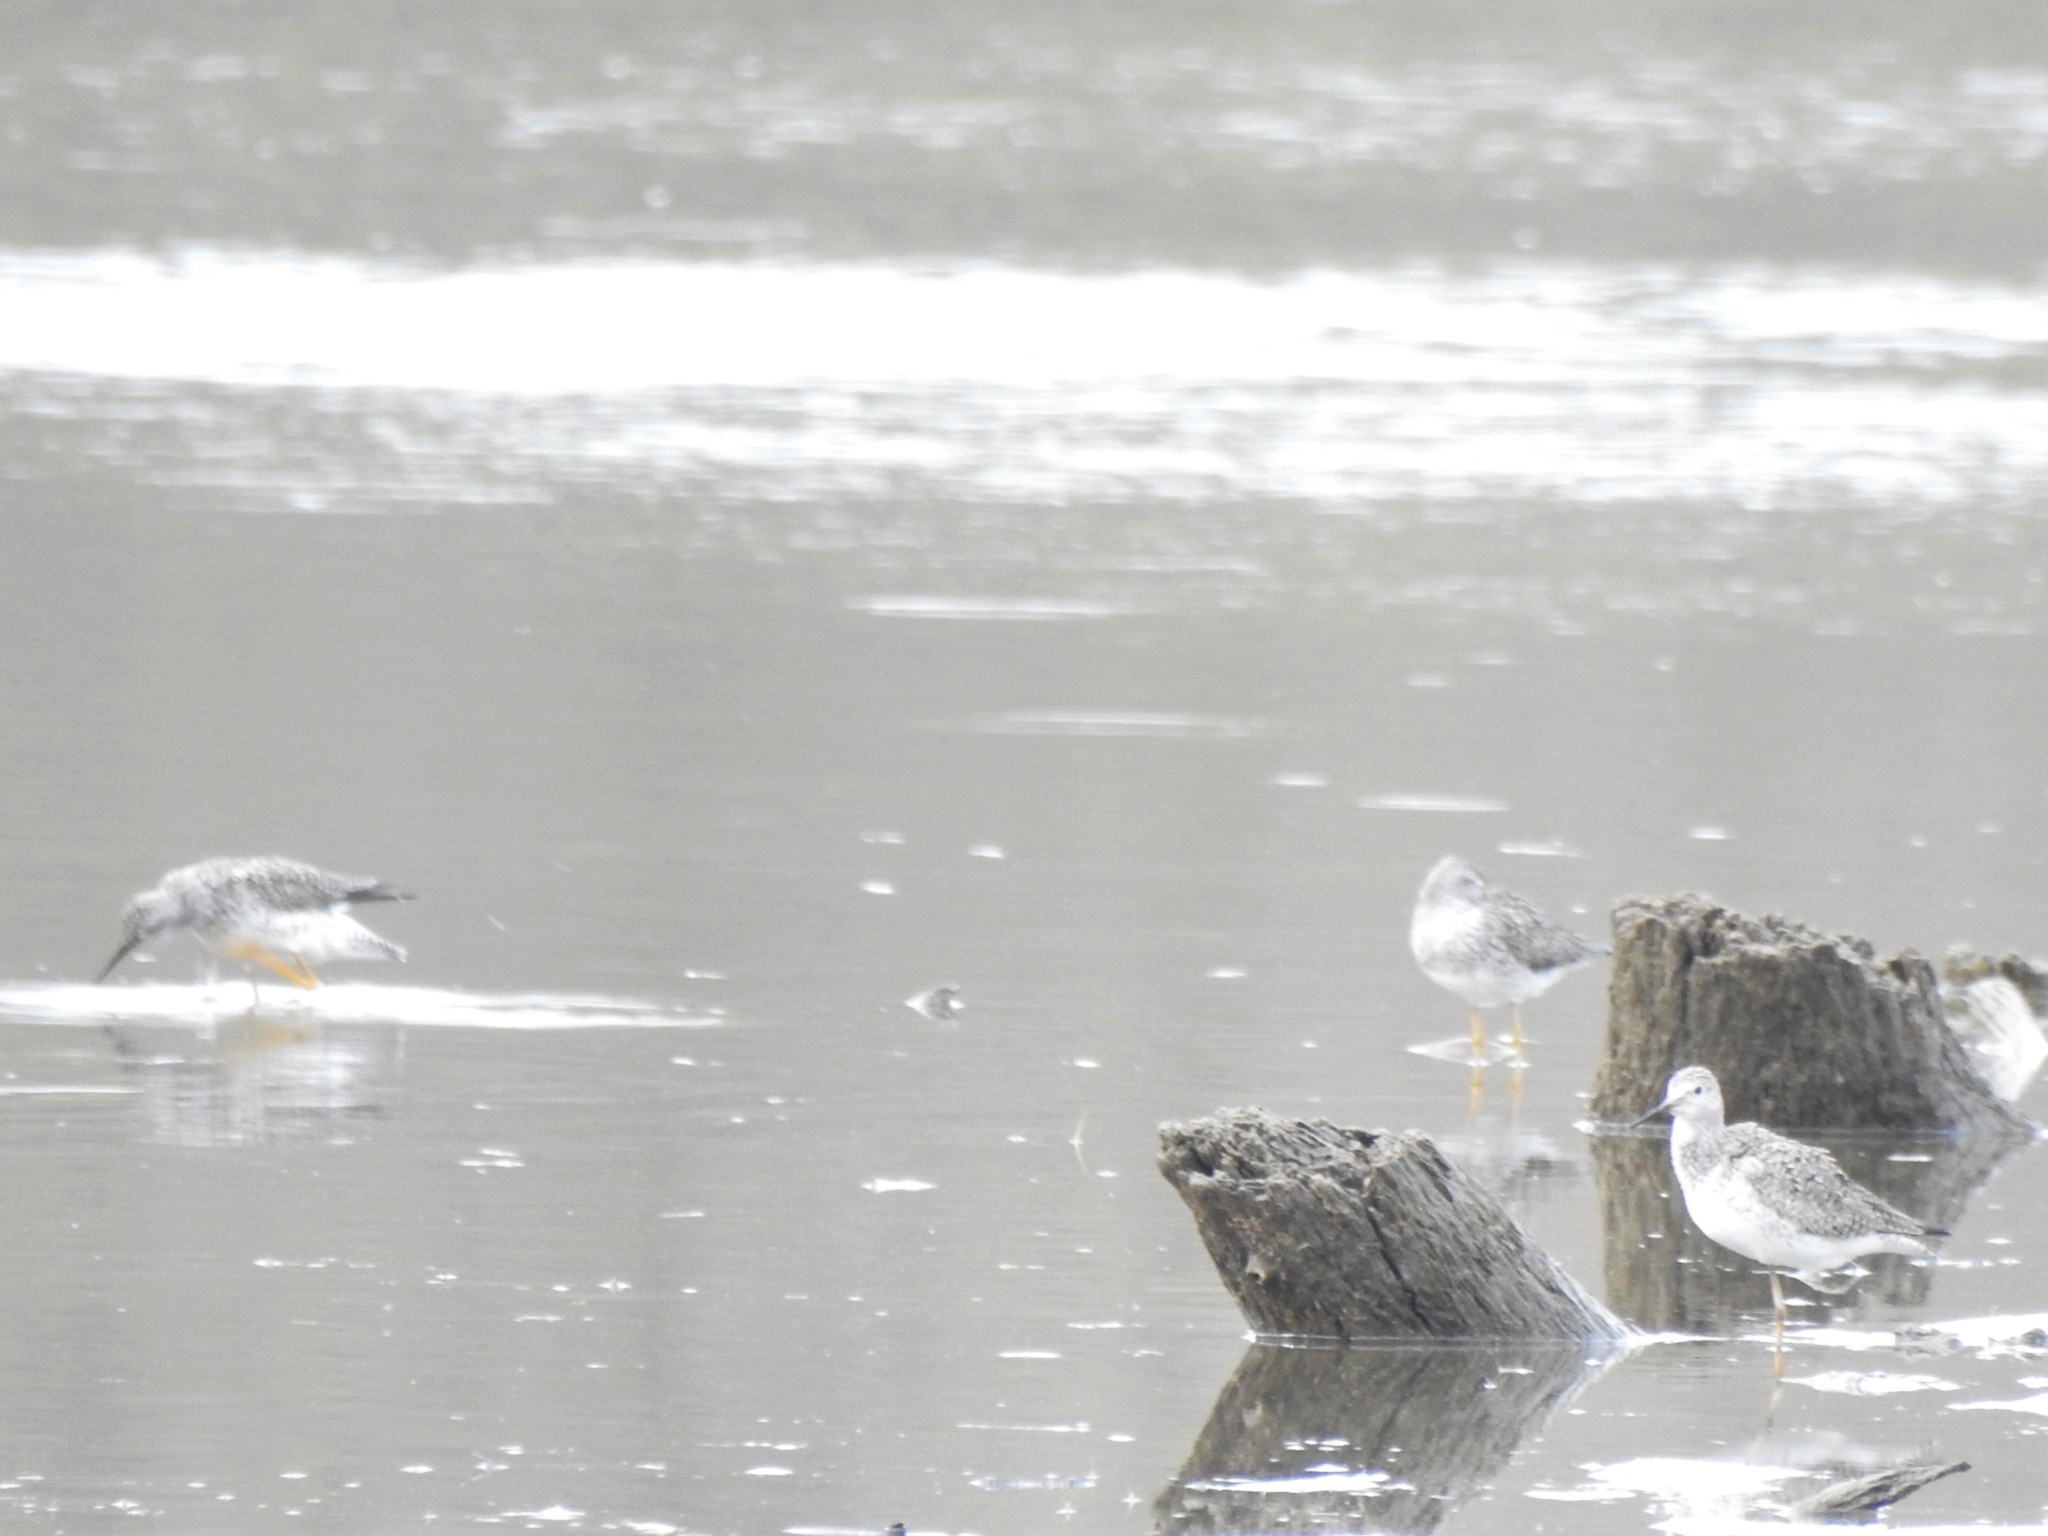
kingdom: Animalia
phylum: Chordata
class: Aves
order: Charadriiformes
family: Scolopacidae
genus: Tringa
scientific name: Tringa flavipes
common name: Lesser yellowlegs
